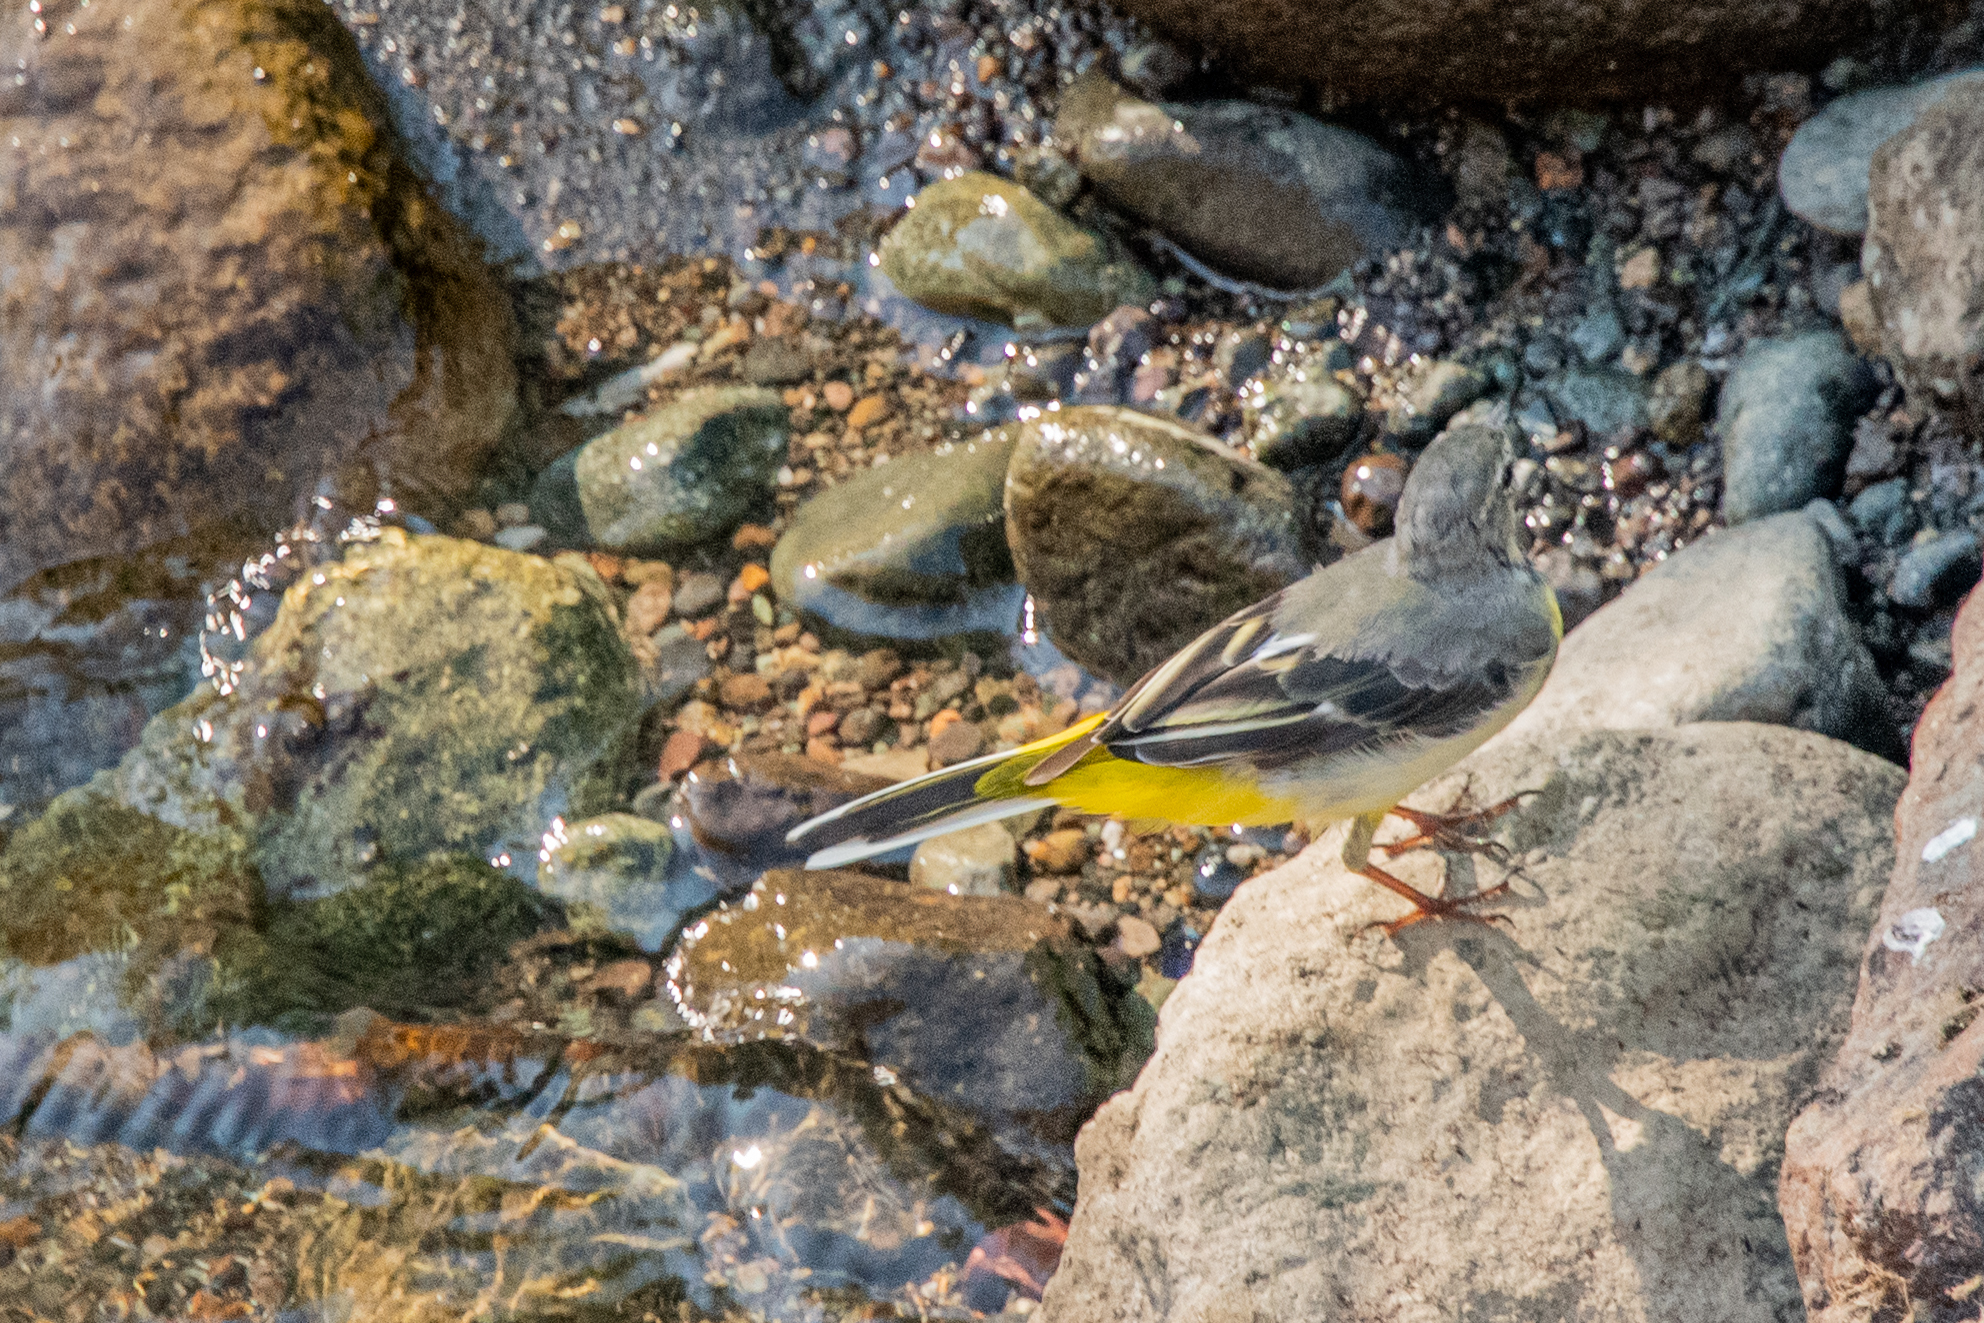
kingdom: Animalia
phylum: Chordata
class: Aves
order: Passeriformes
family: Motacillidae
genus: Motacilla
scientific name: Motacilla cinerea
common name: Grey wagtail
